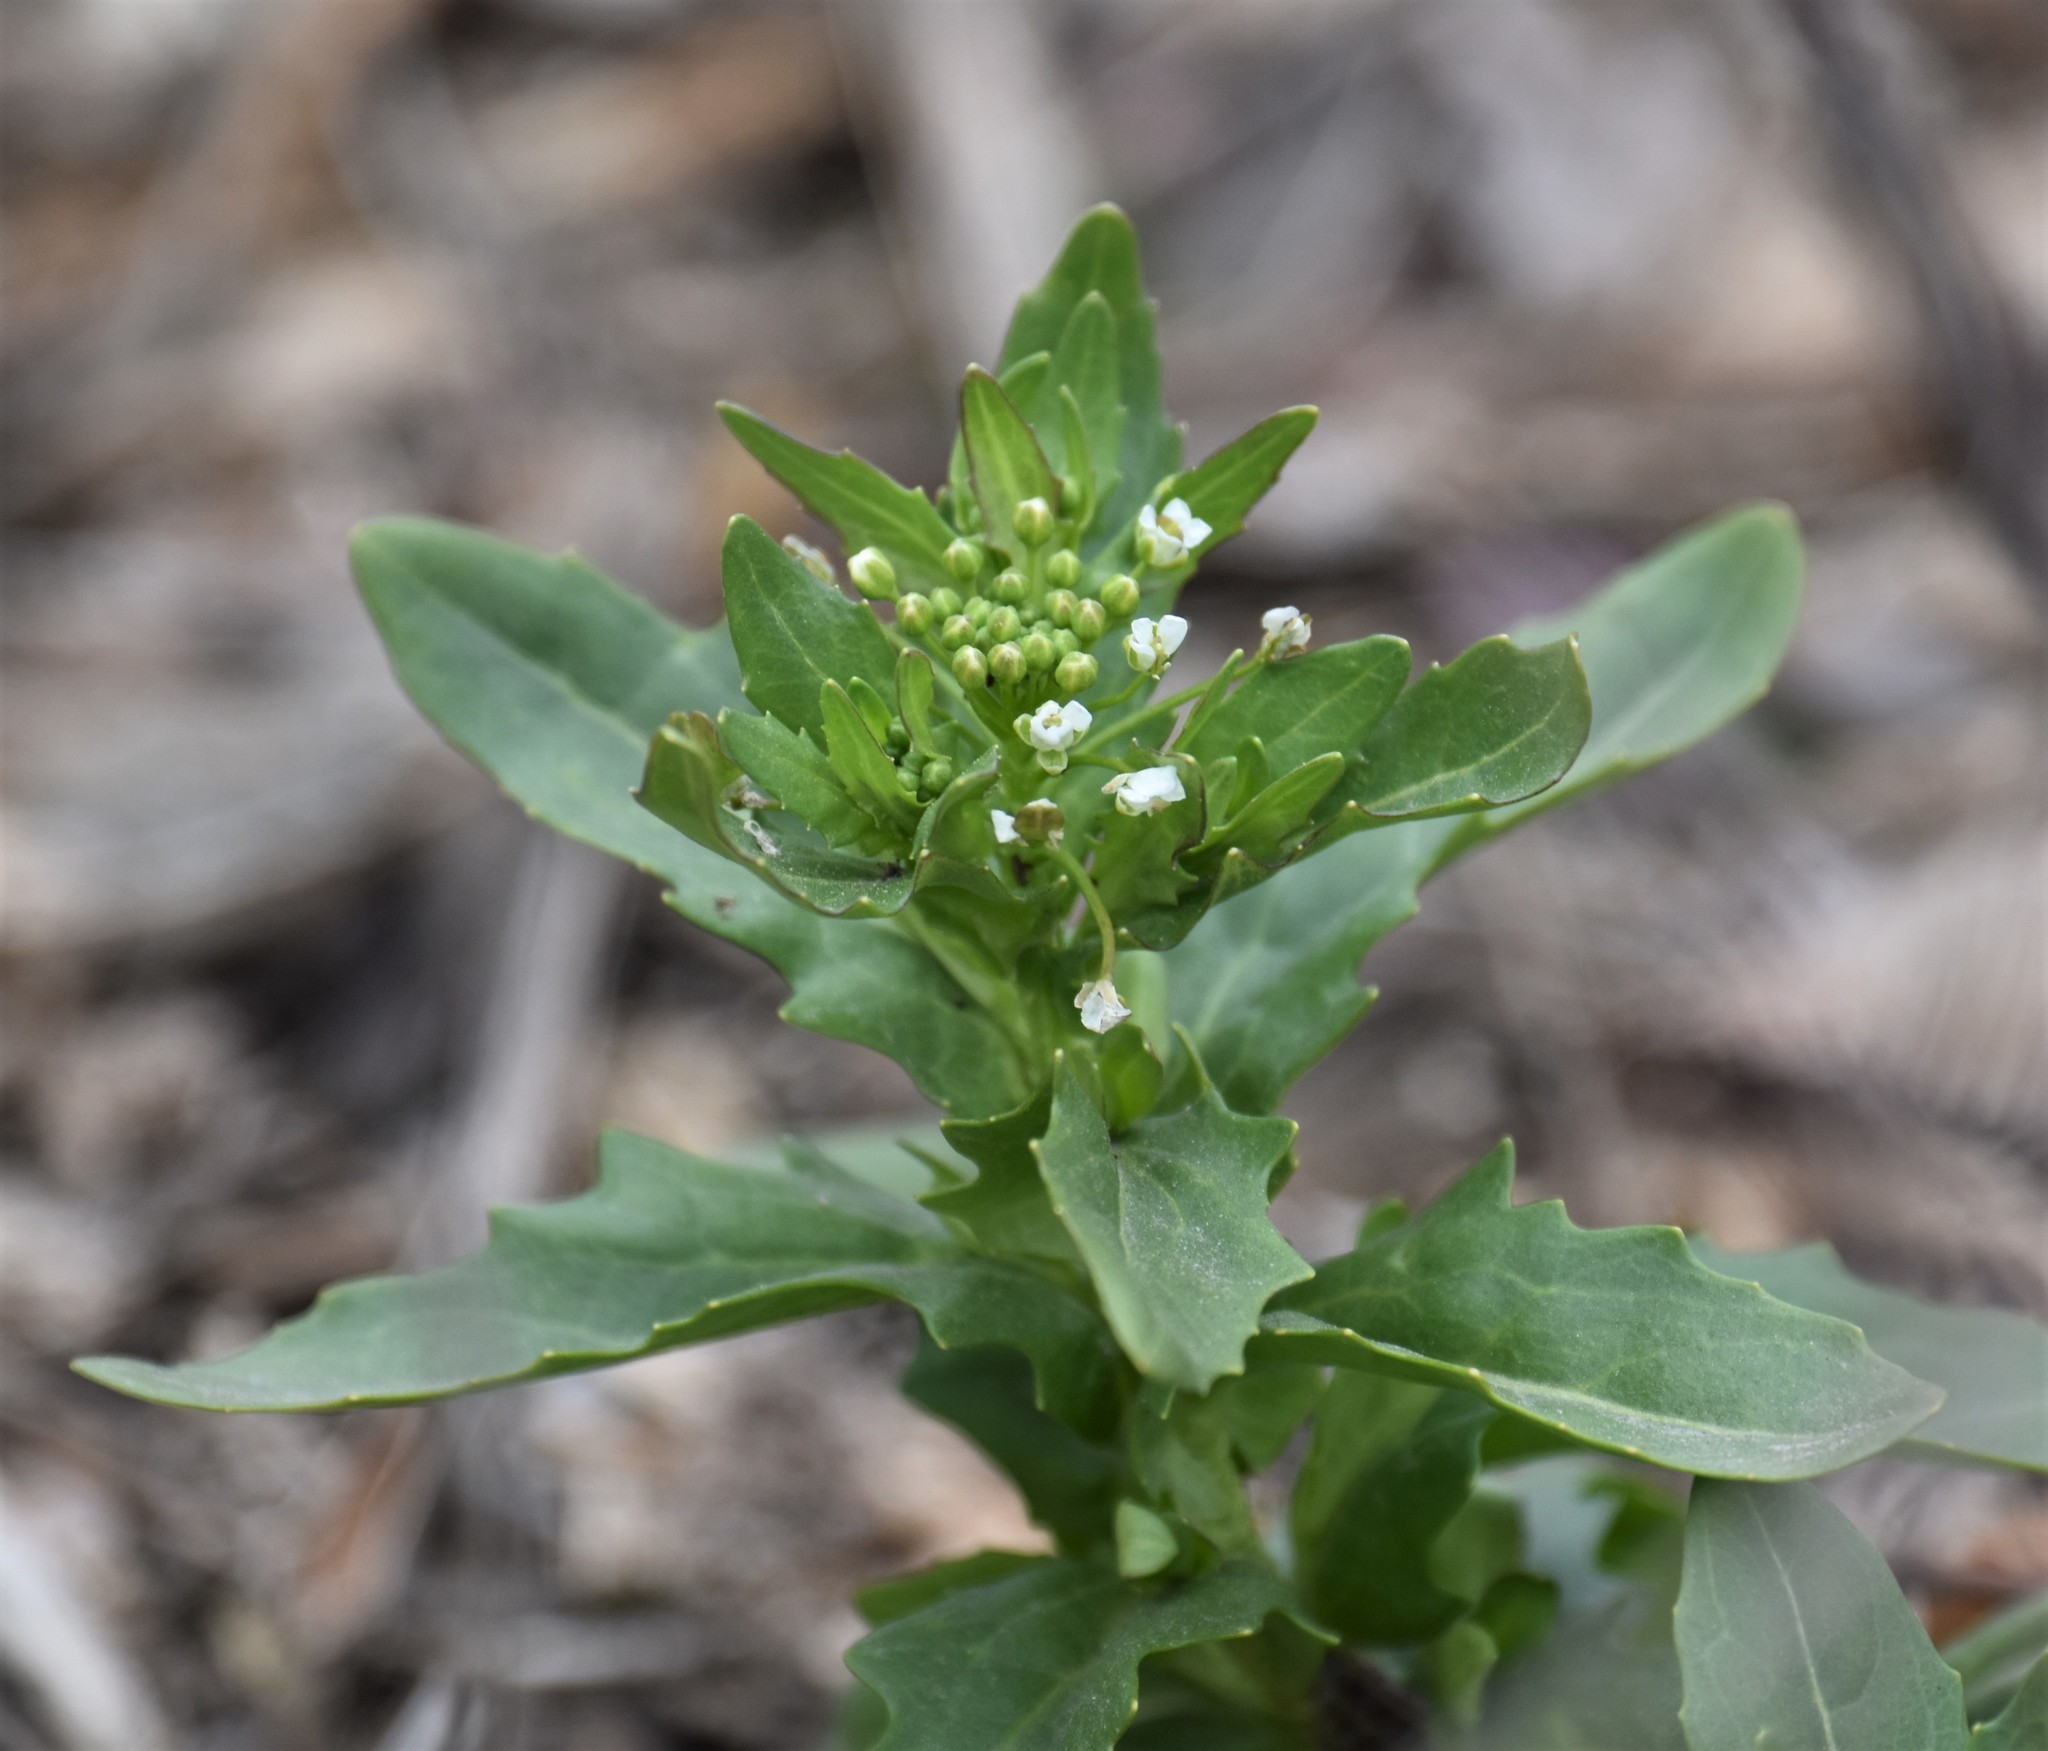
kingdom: Plantae
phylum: Tracheophyta
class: Magnoliopsida
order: Brassicales
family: Brassicaceae
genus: Thlaspi
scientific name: Thlaspi arvense
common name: Field pennycress
